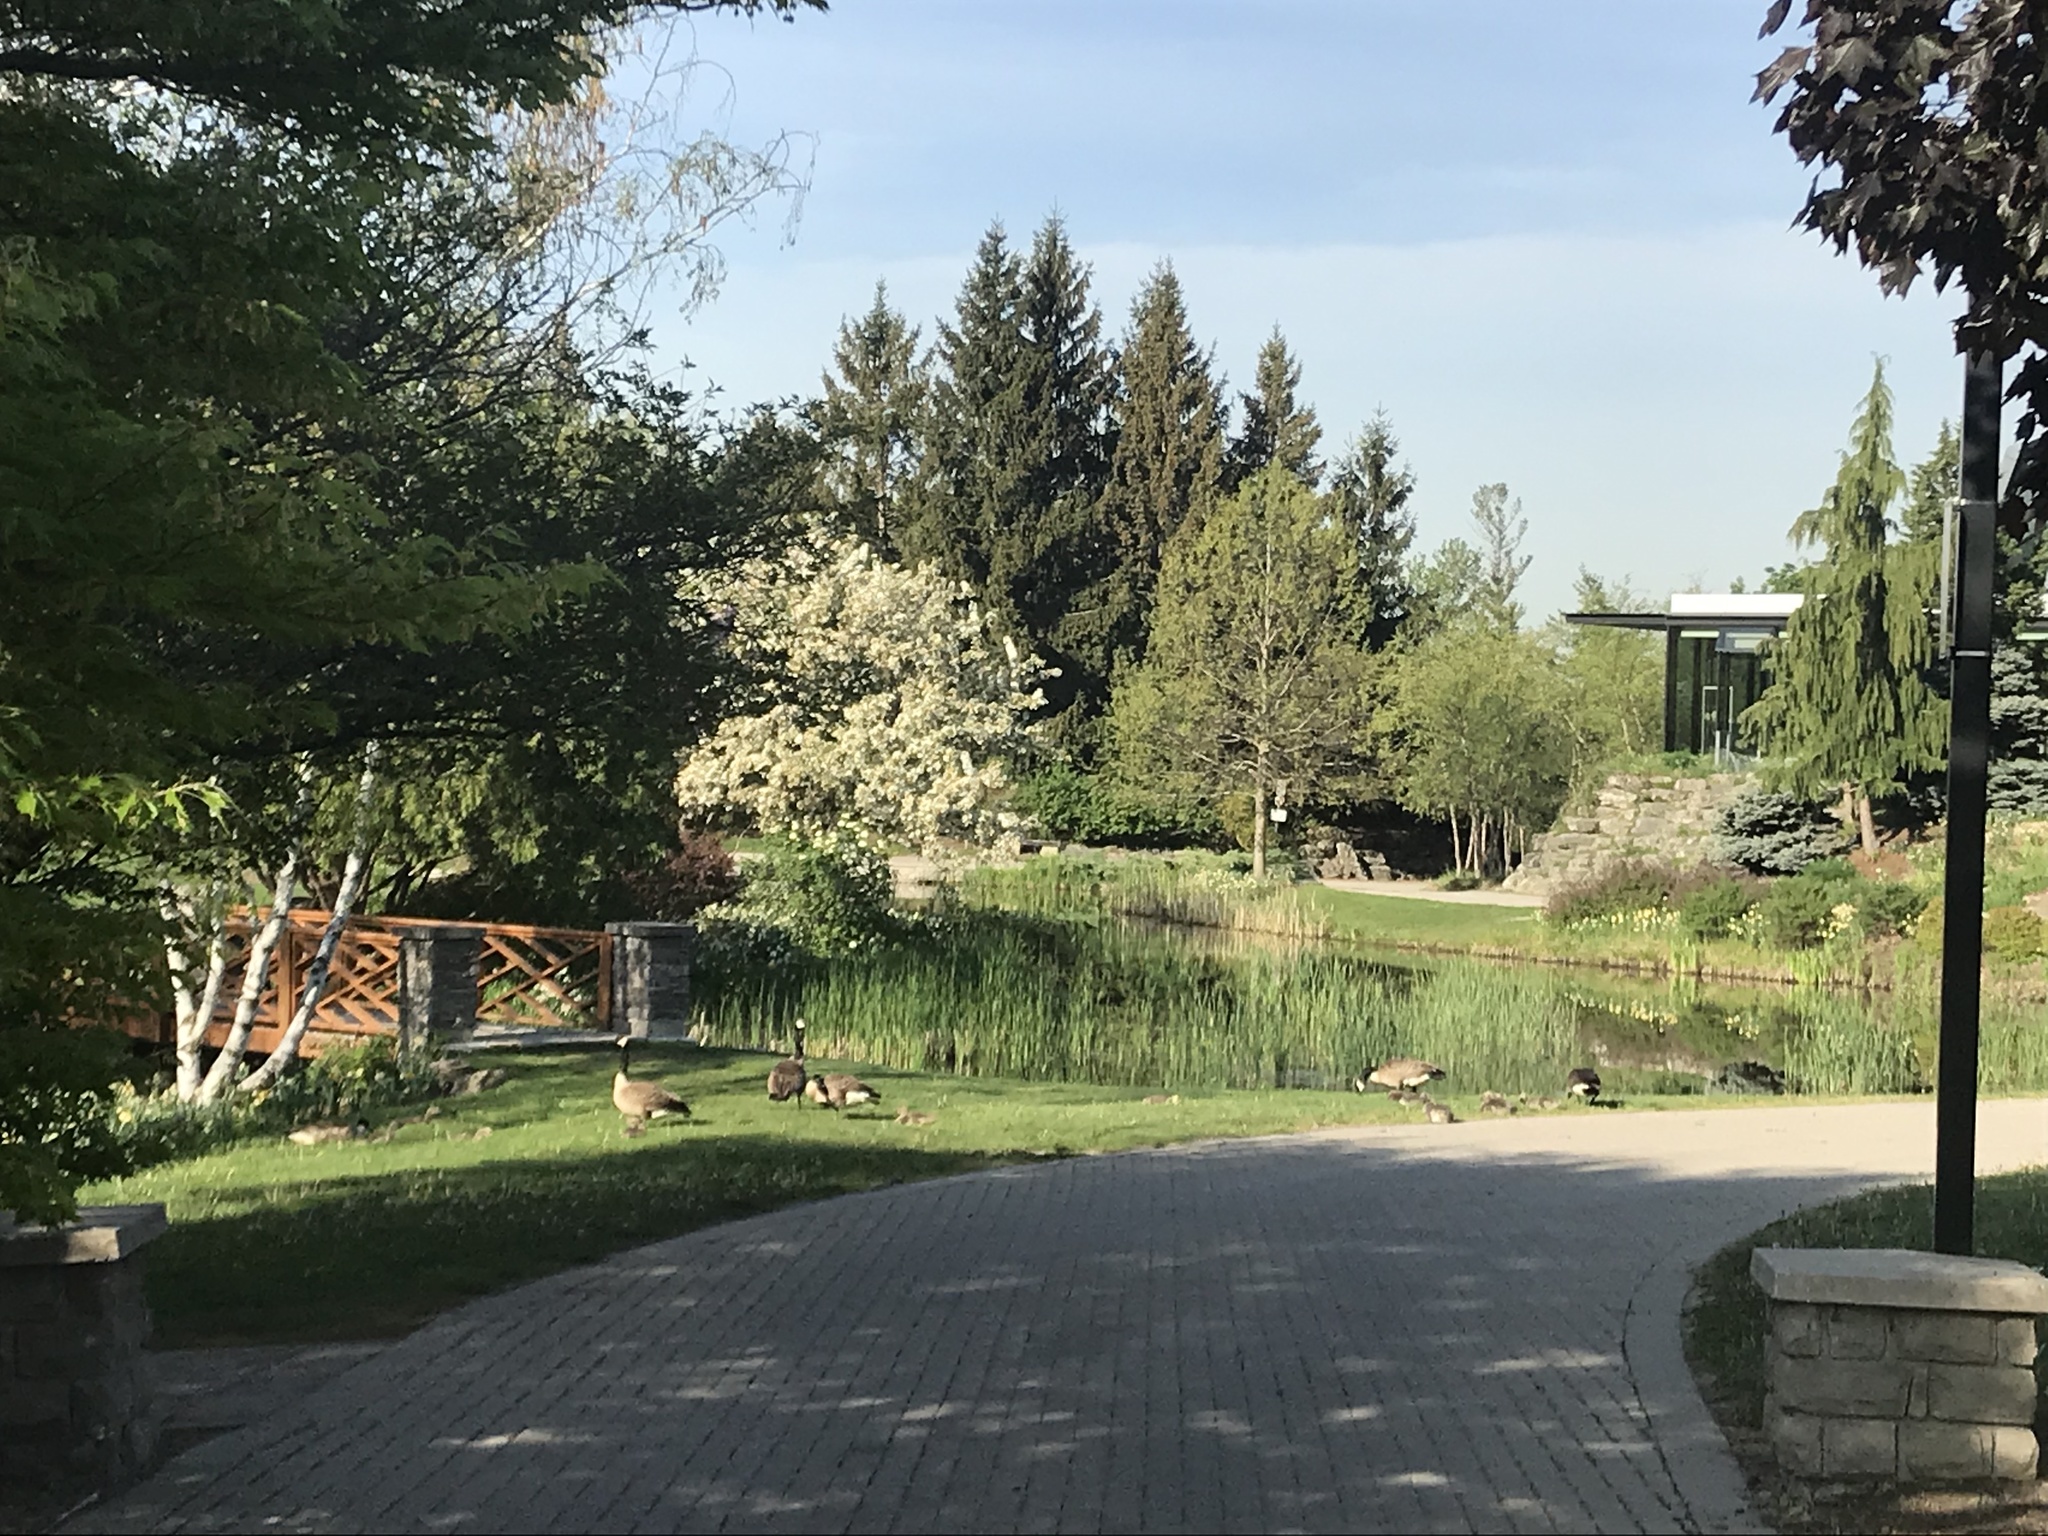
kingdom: Animalia
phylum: Chordata
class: Aves
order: Anseriformes
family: Anatidae
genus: Branta
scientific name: Branta canadensis
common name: Canada goose
